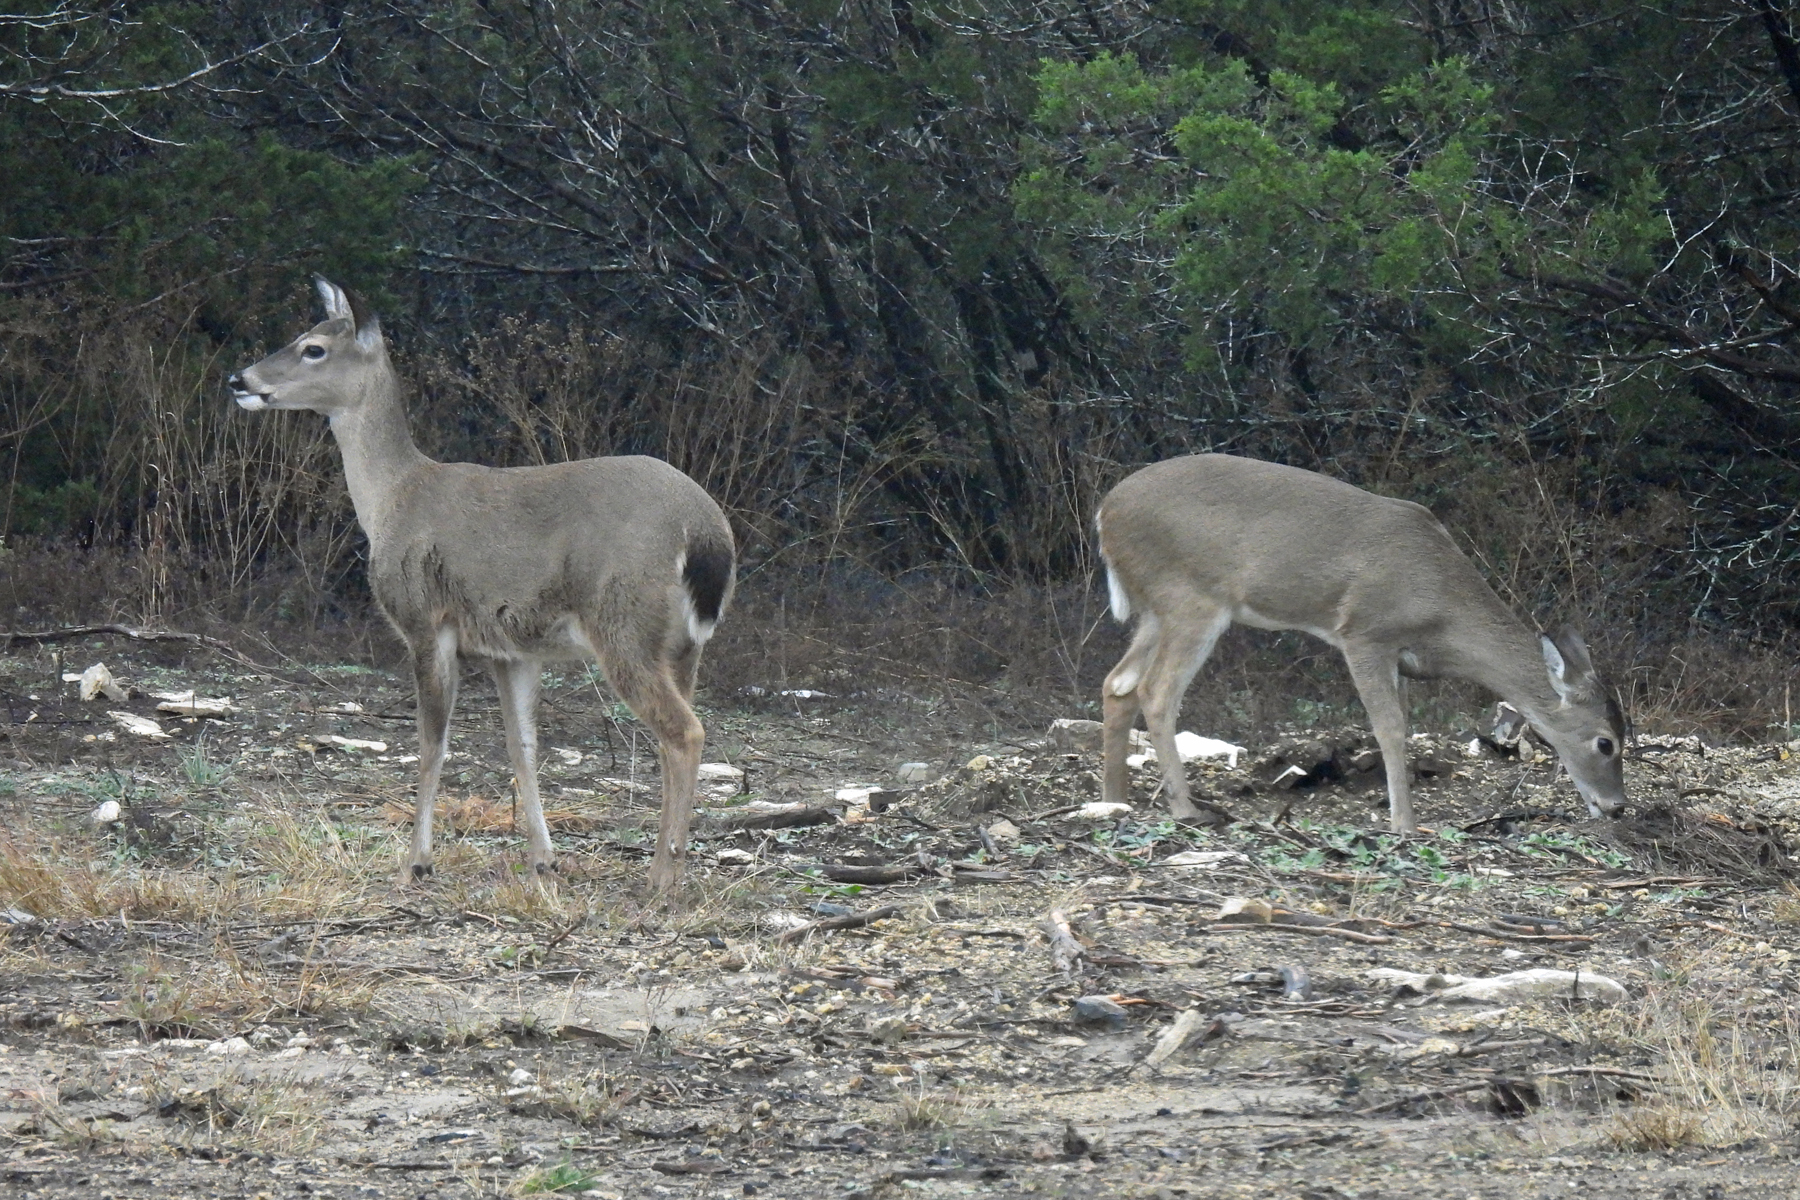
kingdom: Animalia
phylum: Chordata
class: Mammalia
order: Artiodactyla
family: Cervidae
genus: Odocoileus
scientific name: Odocoileus virginianus
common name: White-tailed deer
